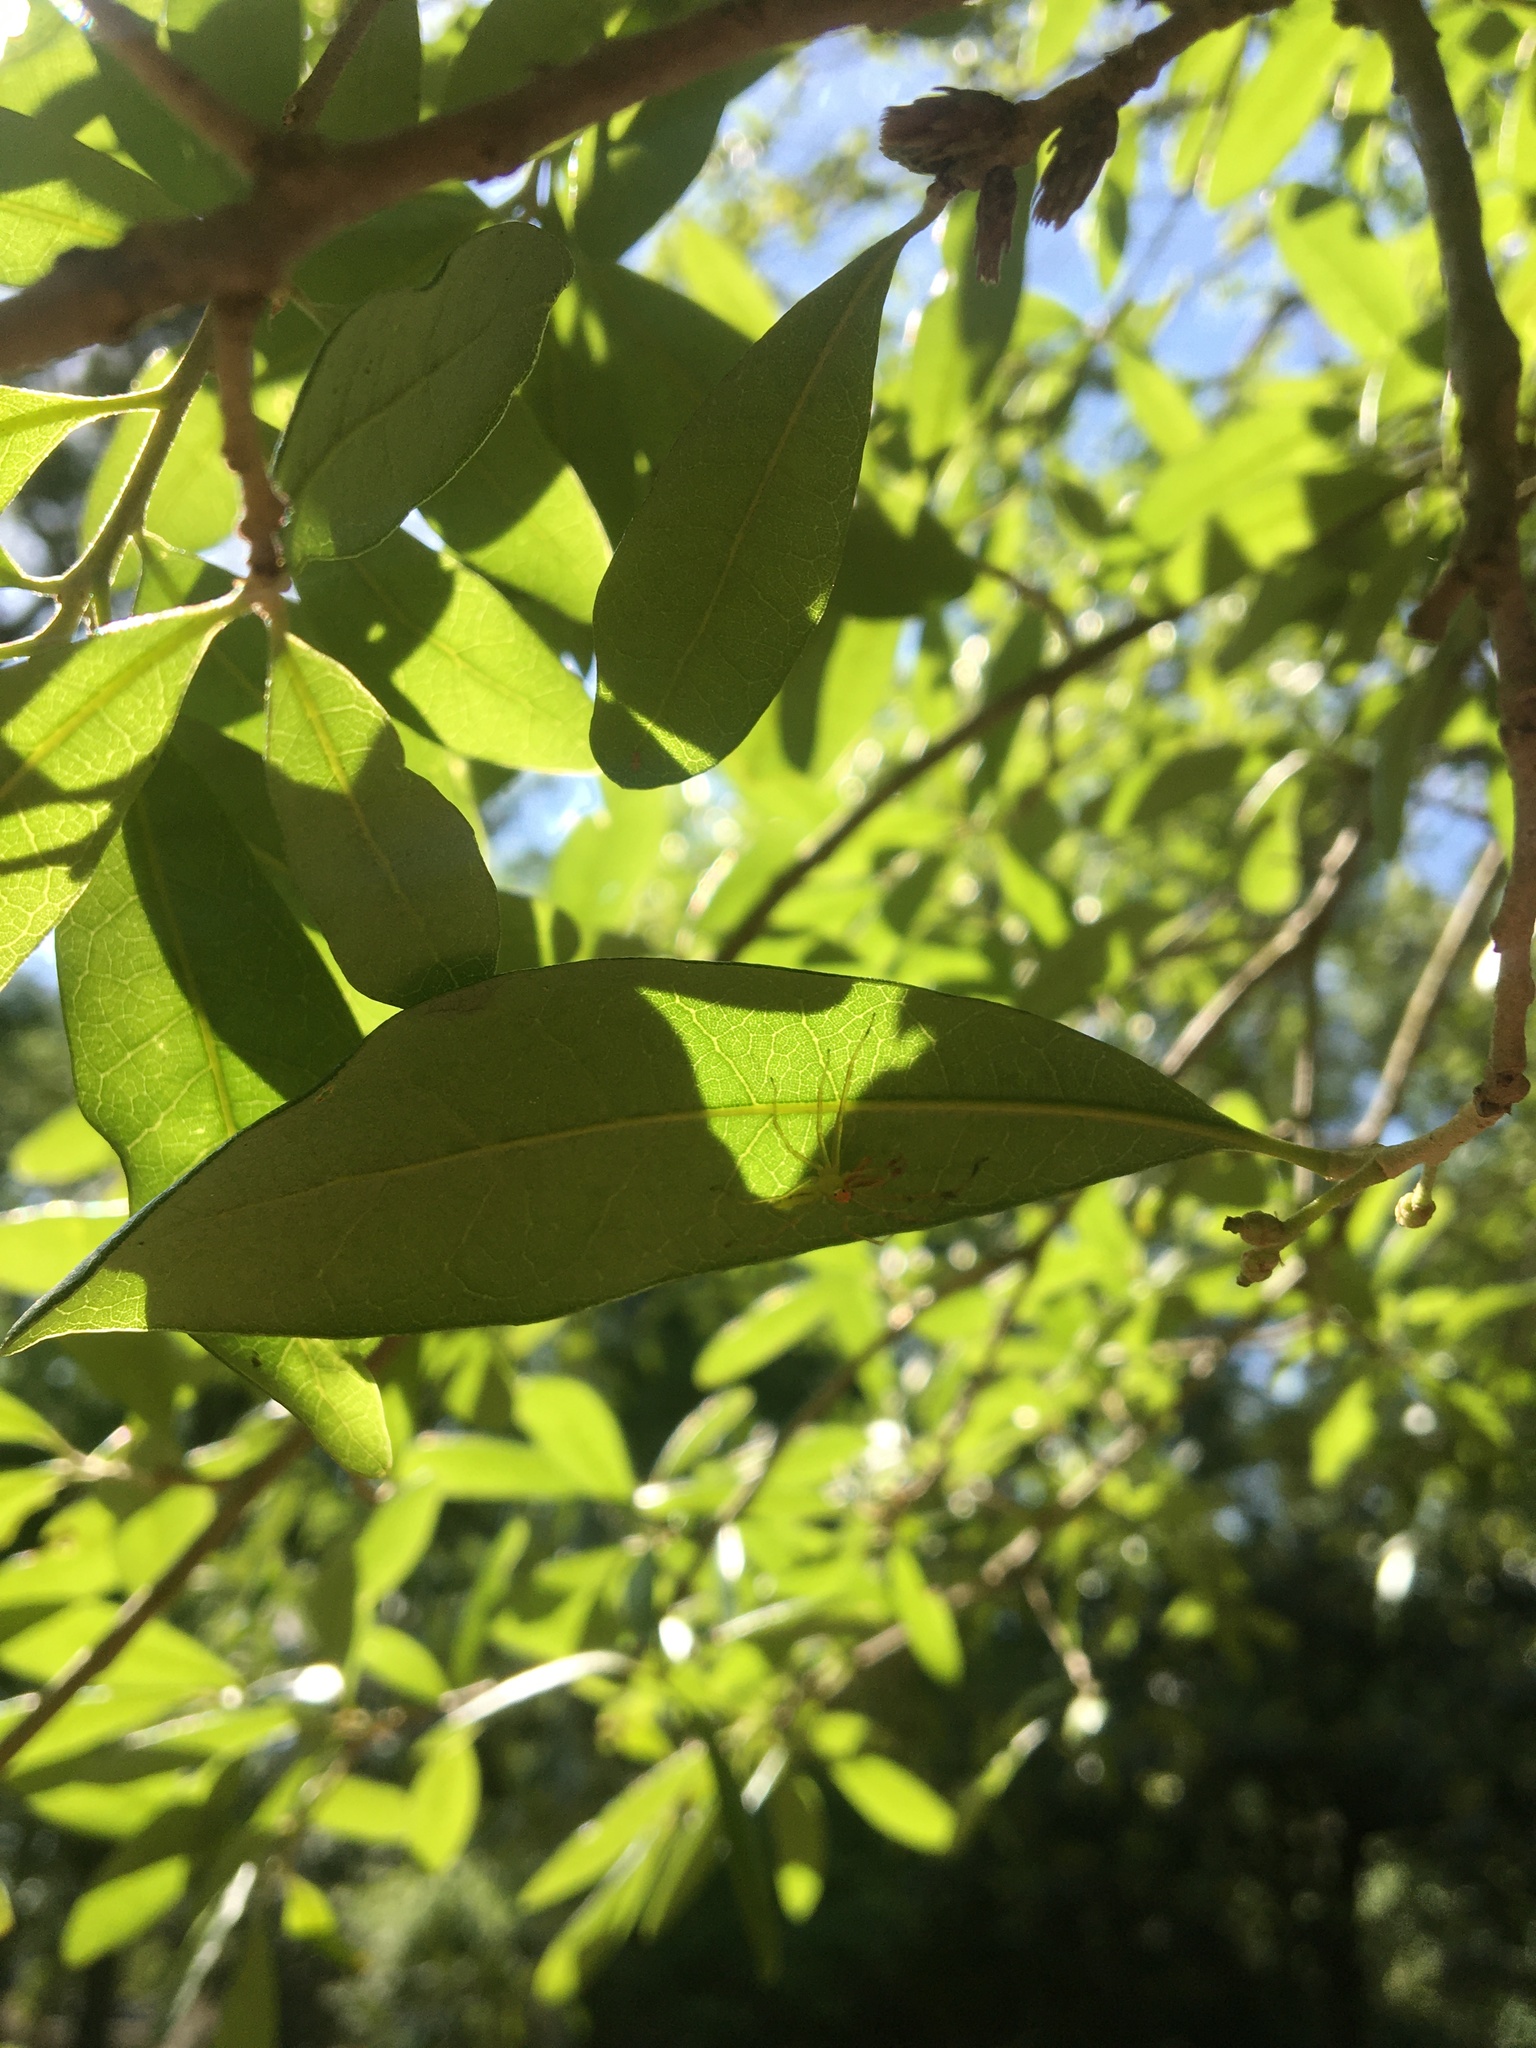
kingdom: Animalia
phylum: Arthropoda
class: Arachnida
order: Araneae
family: Salticidae
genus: Lyssomanes
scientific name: Lyssomanes viridis
